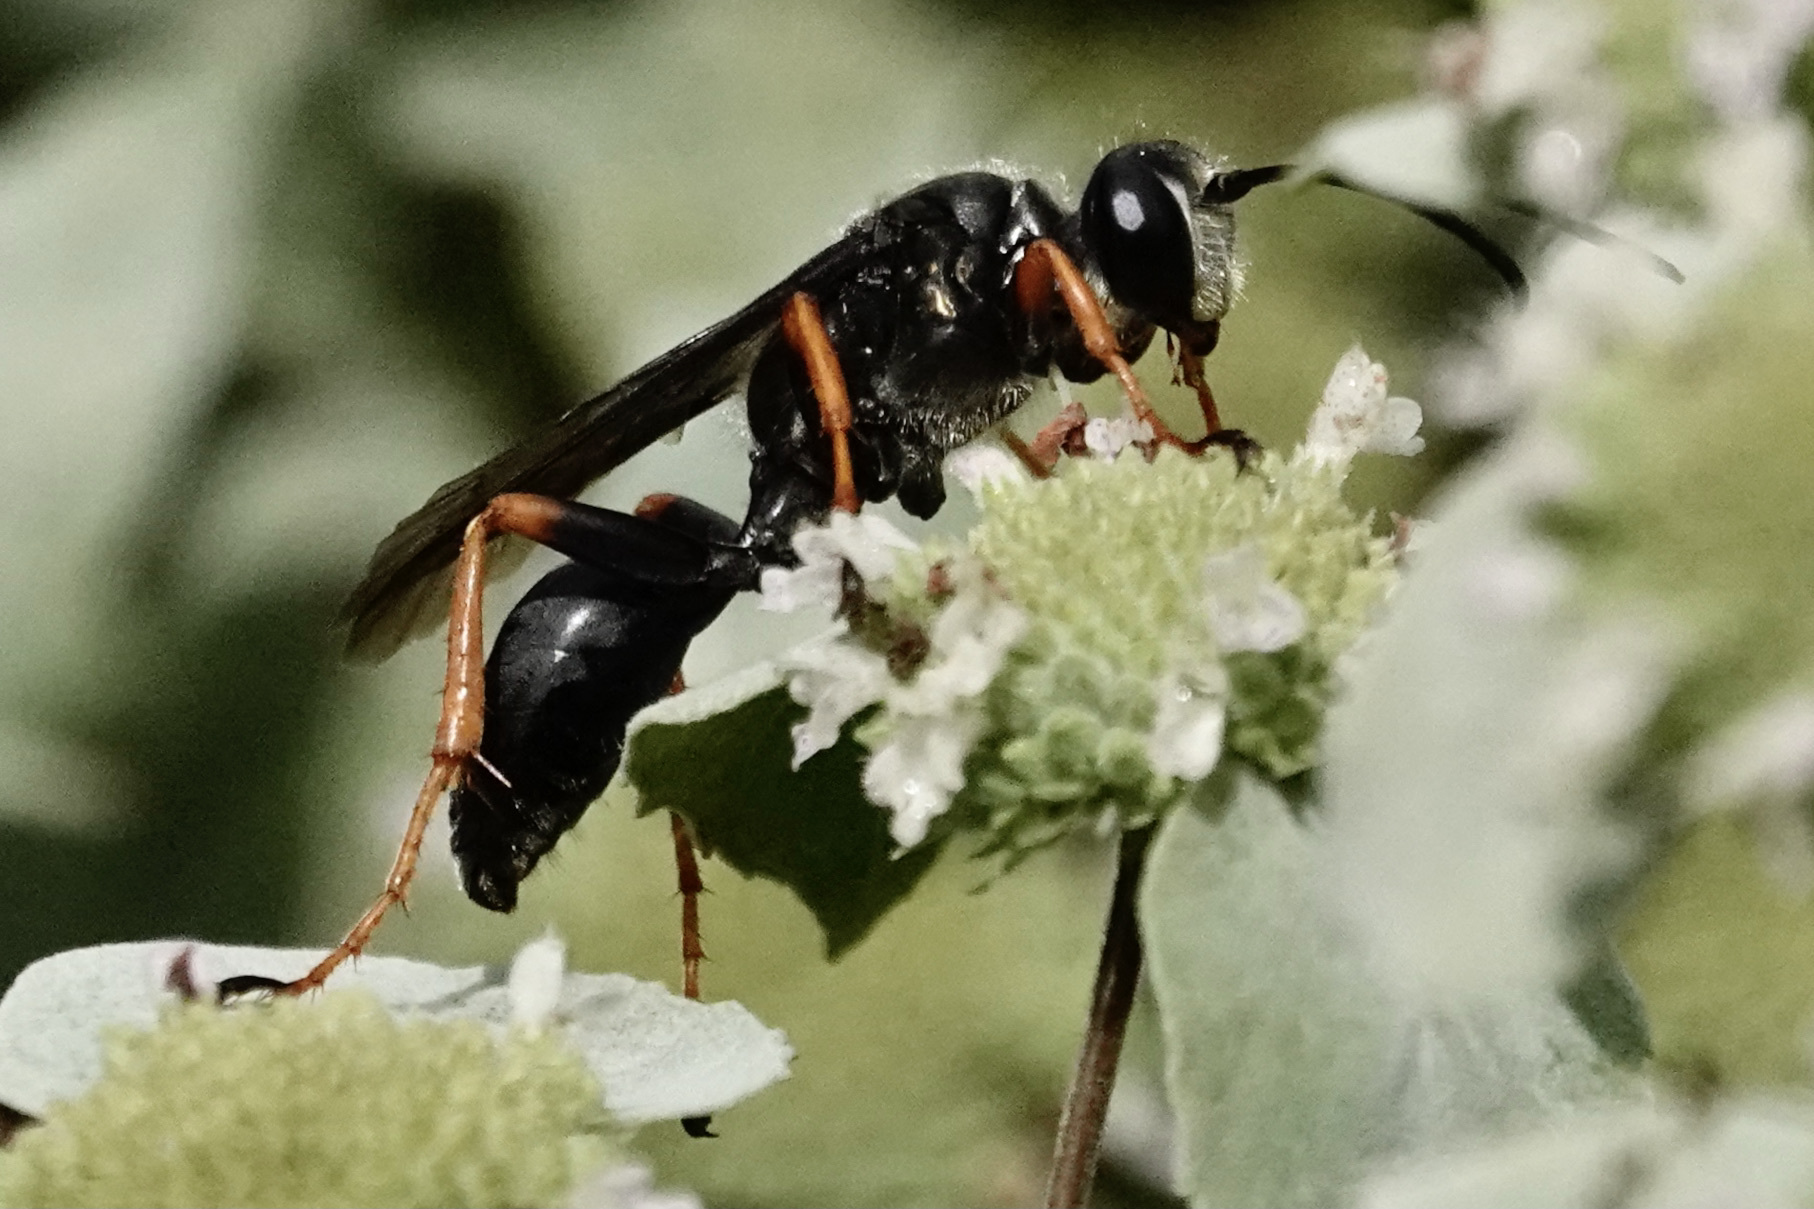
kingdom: Animalia
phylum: Arthropoda
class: Insecta
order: Hymenoptera
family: Sphecidae
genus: Sphex
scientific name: Sphex nudus
